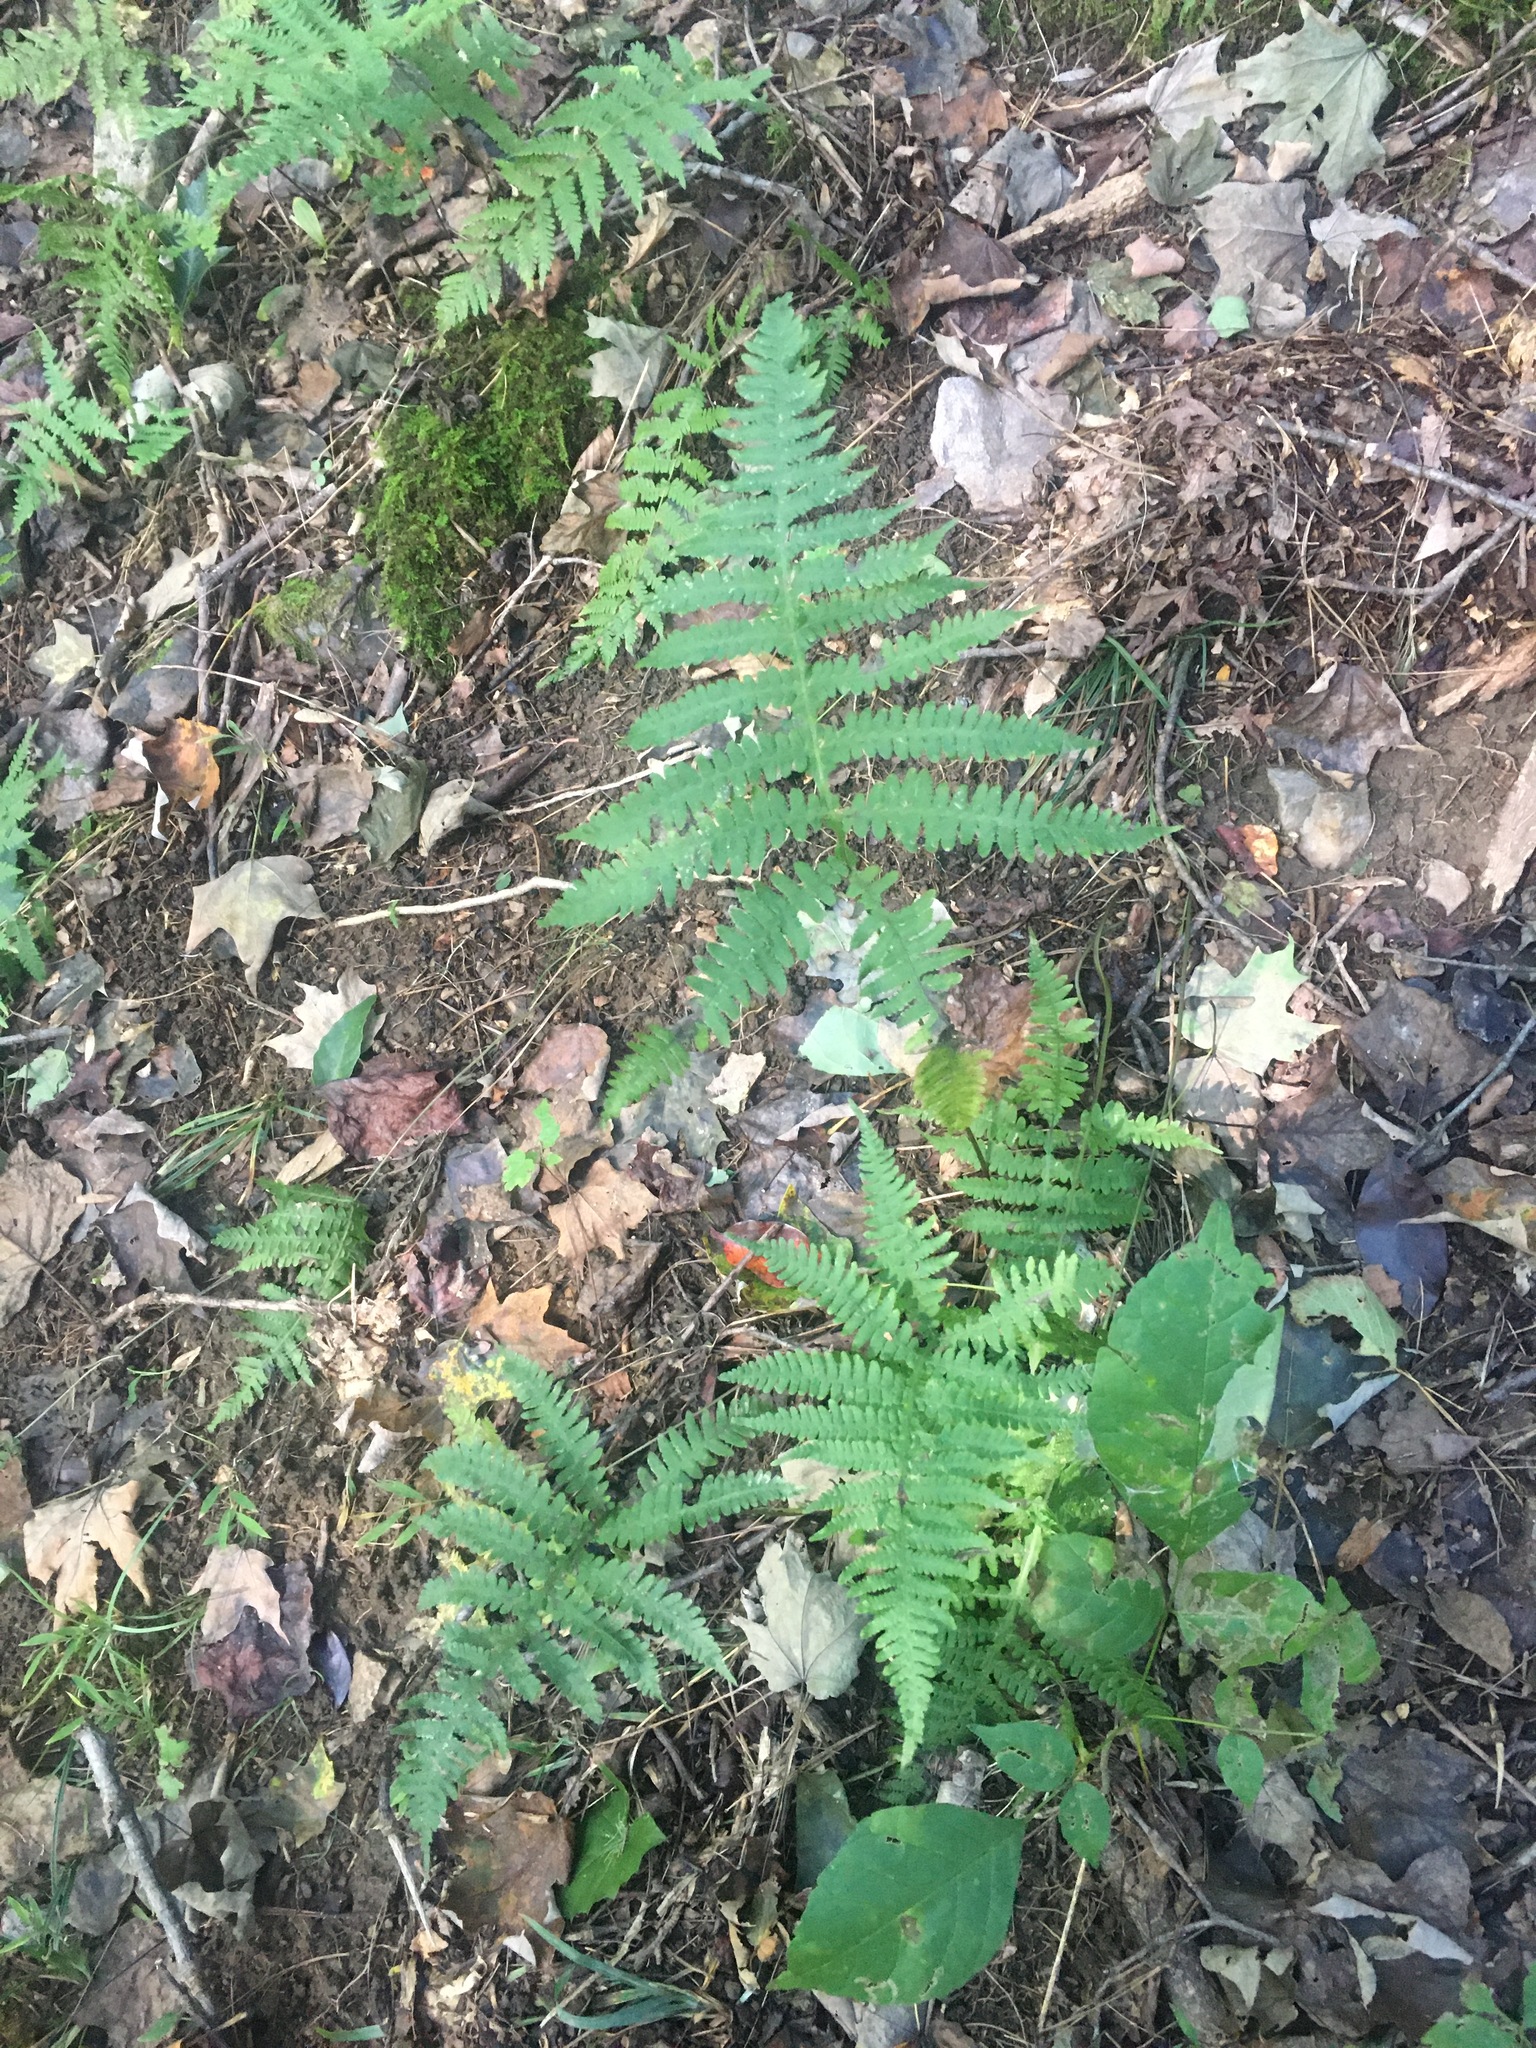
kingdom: Plantae
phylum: Tracheophyta
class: Polypodiopsida
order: Polypodiales
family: Thelypteridaceae
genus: Phegopteris
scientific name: Phegopteris hexagonoptera
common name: Broad beech fern
